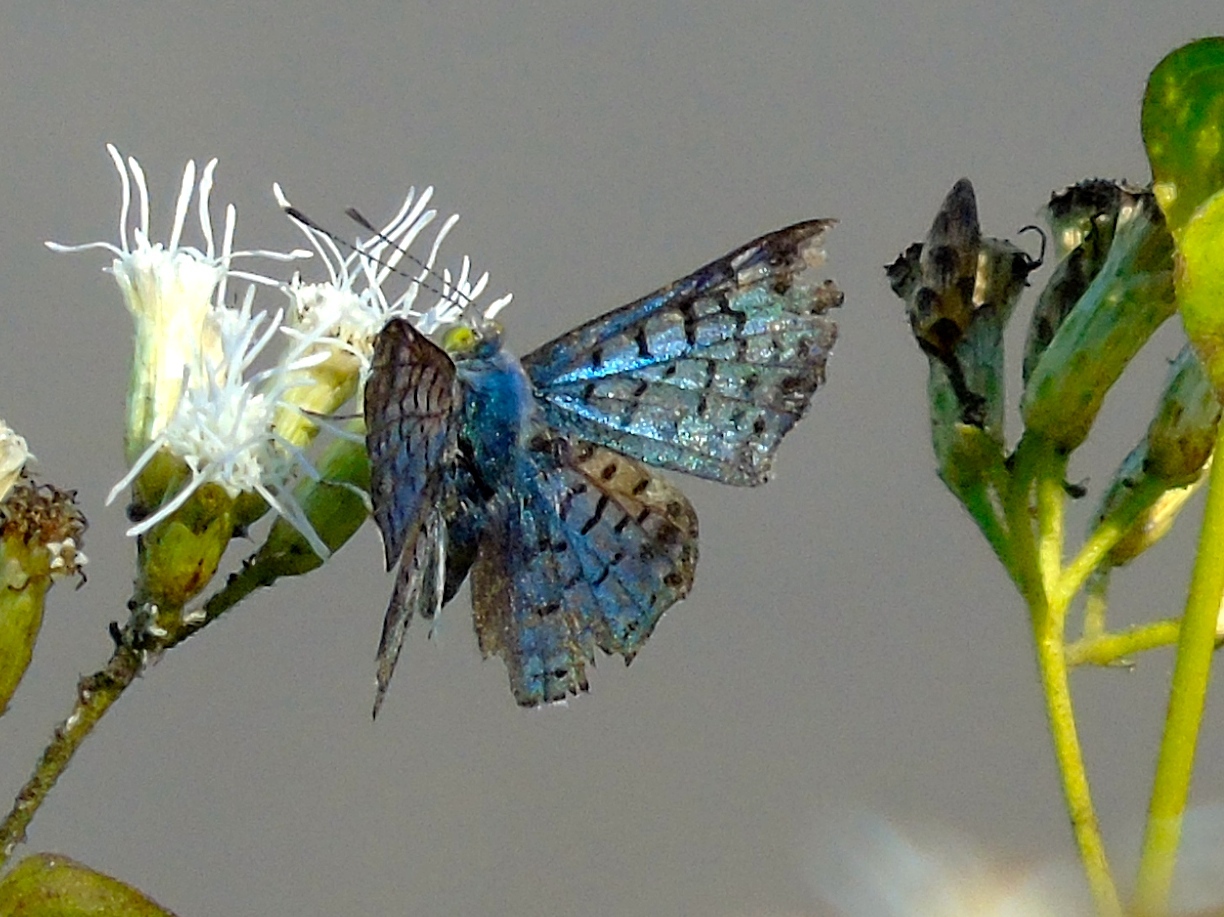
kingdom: Animalia
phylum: Arthropoda
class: Insecta
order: Lepidoptera
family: Riodinidae
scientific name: Riodinidae
